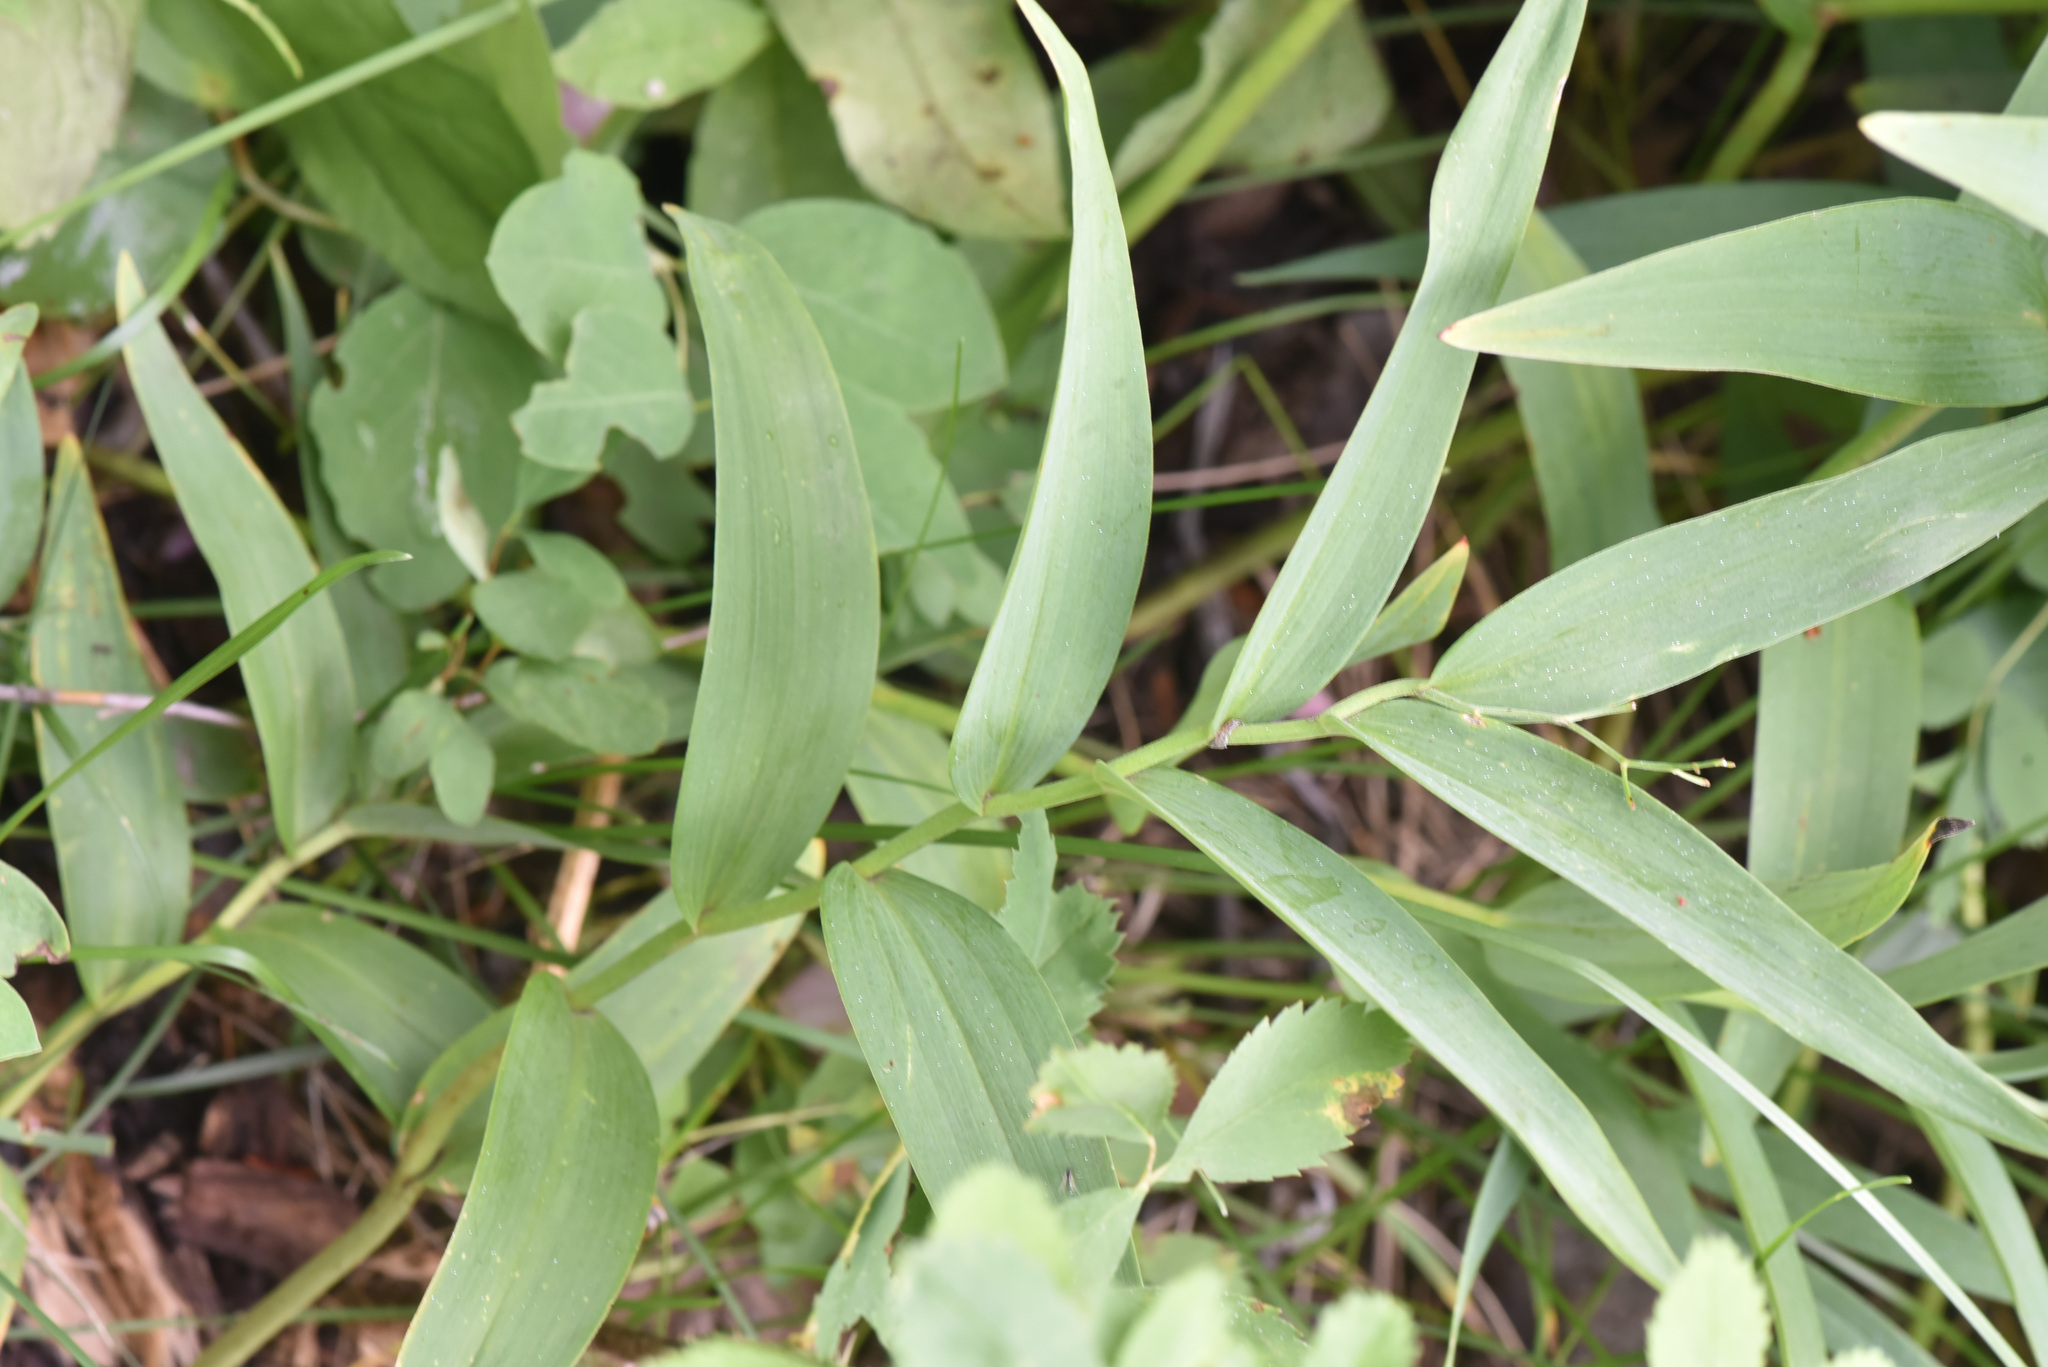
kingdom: Plantae
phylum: Tracheophyta
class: Liliopsida
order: Asparagales
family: Asparagaceae
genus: Maianthemum
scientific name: Maianthemum stellatum
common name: Little false solomon's seal
